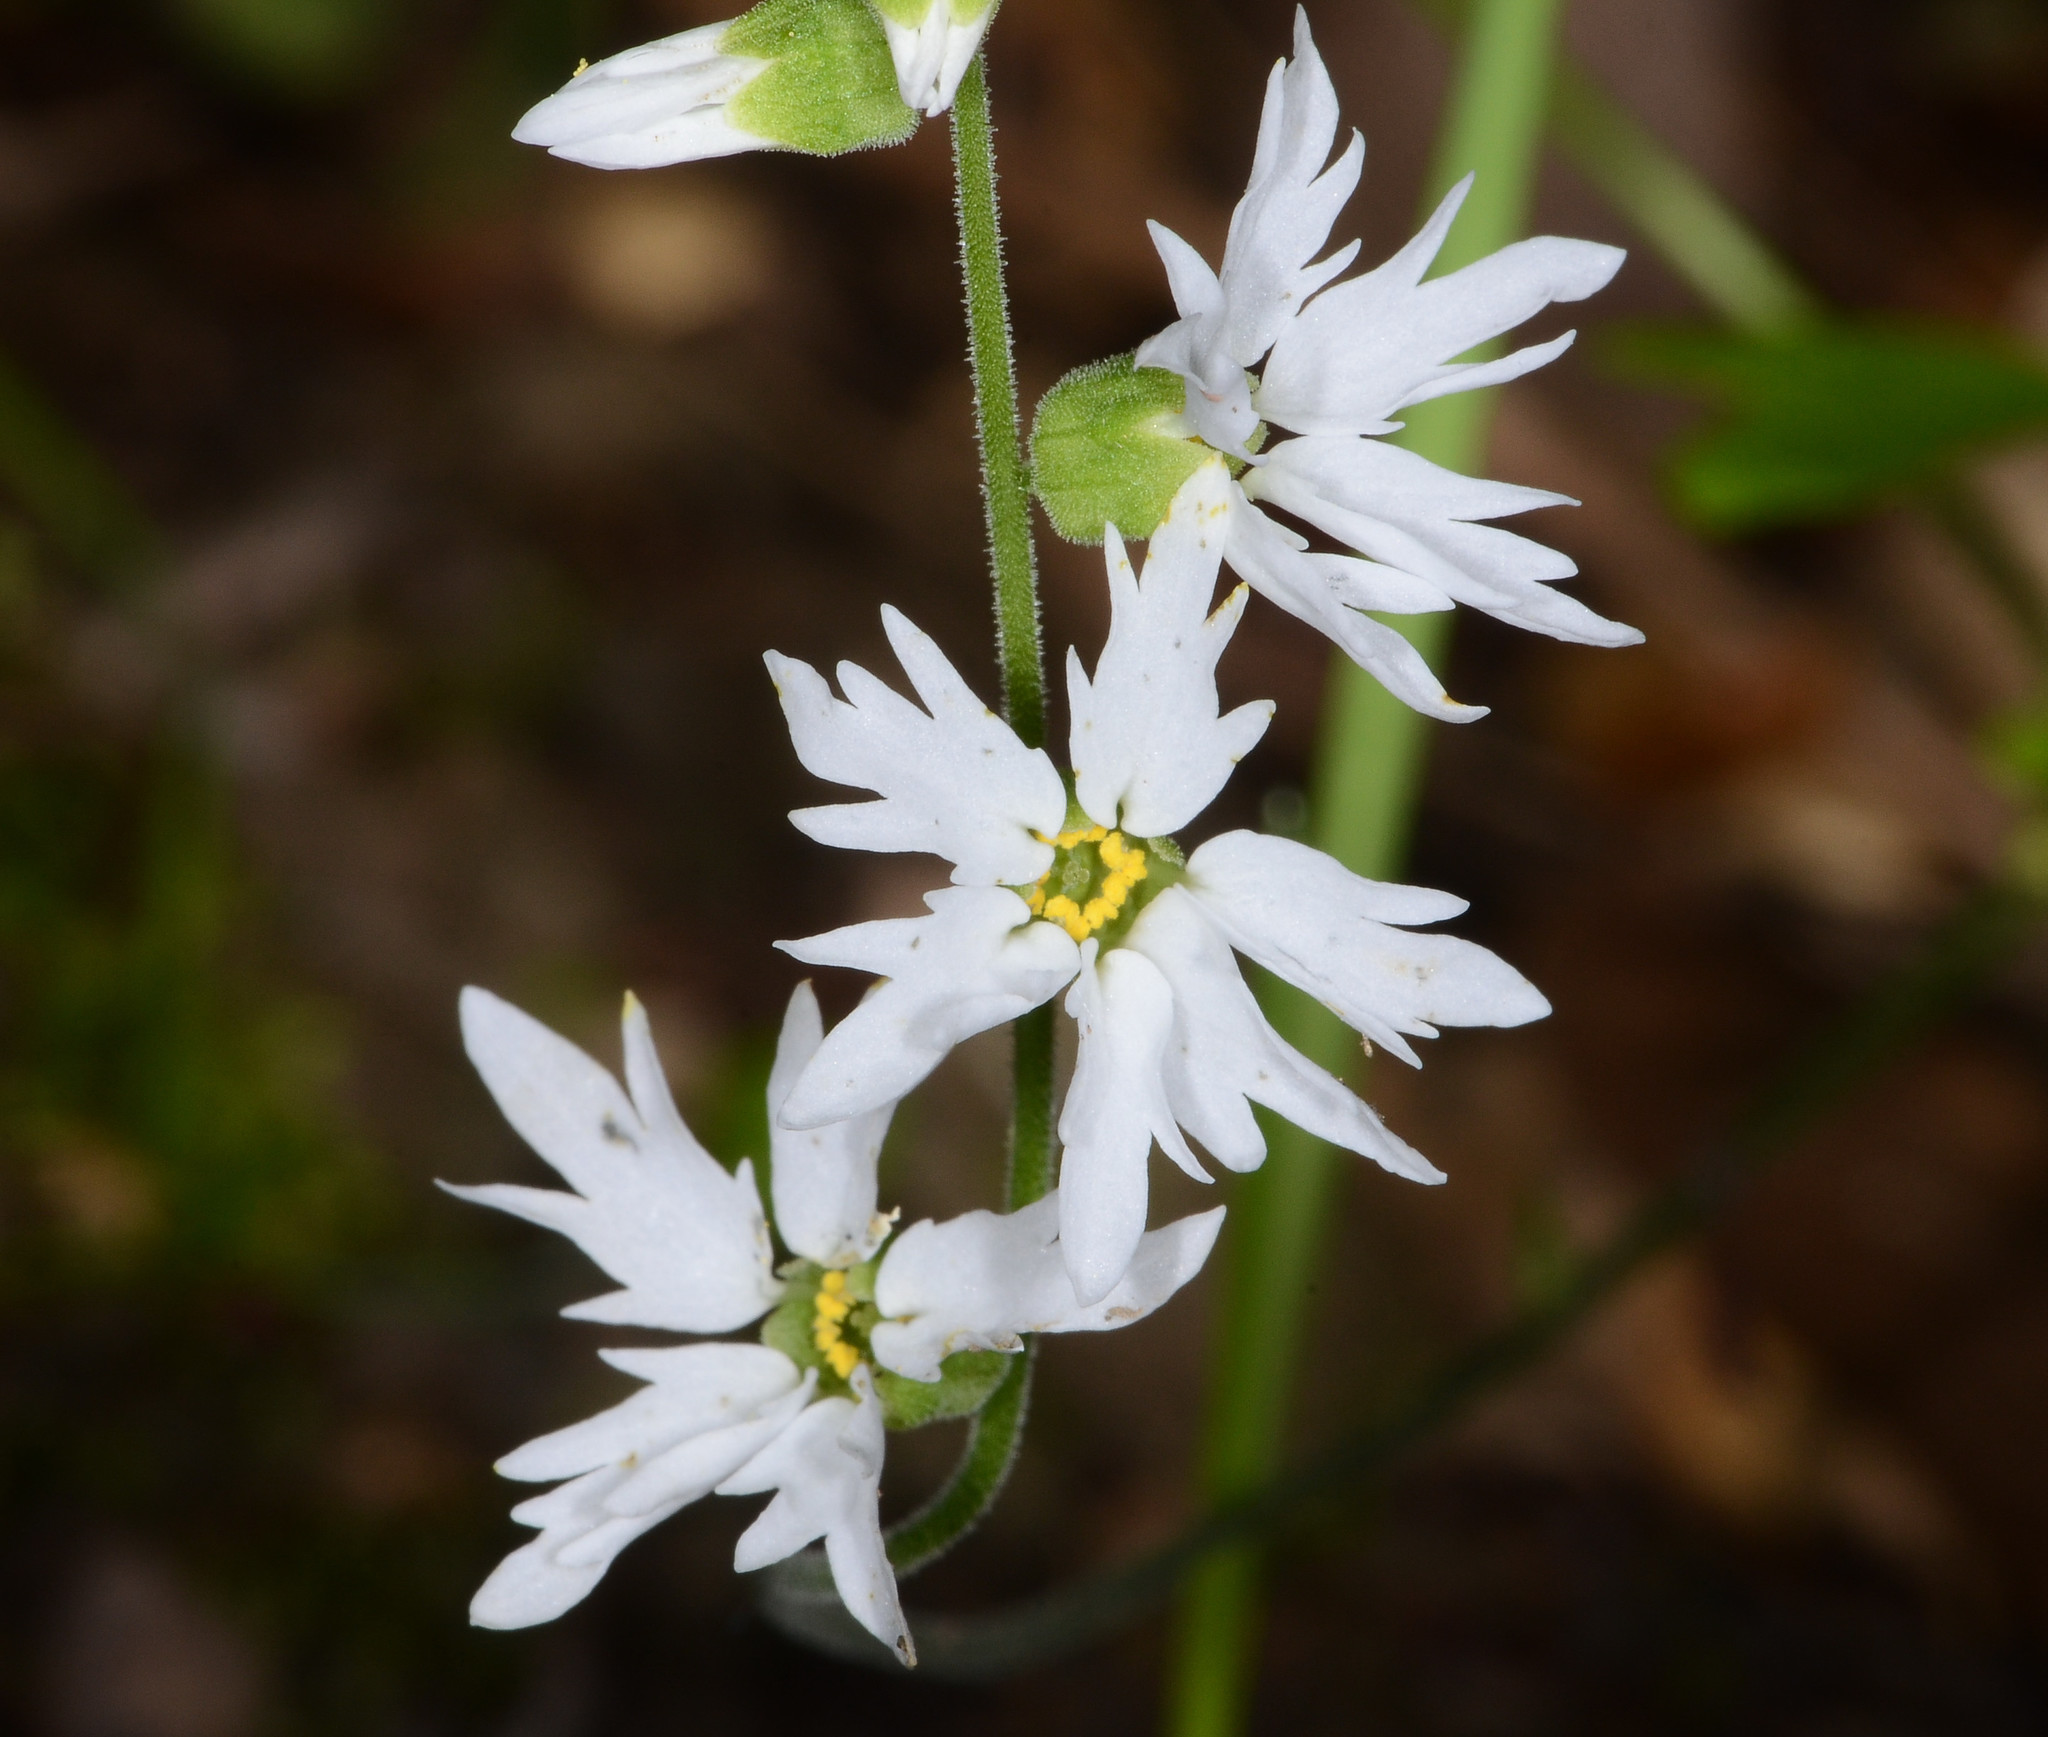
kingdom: Plantae
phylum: Tracheophyta
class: Magnoliopsida
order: Saxifragales
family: Saxifragaceae
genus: Lithophragma
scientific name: Lithophragma heterophyllum
